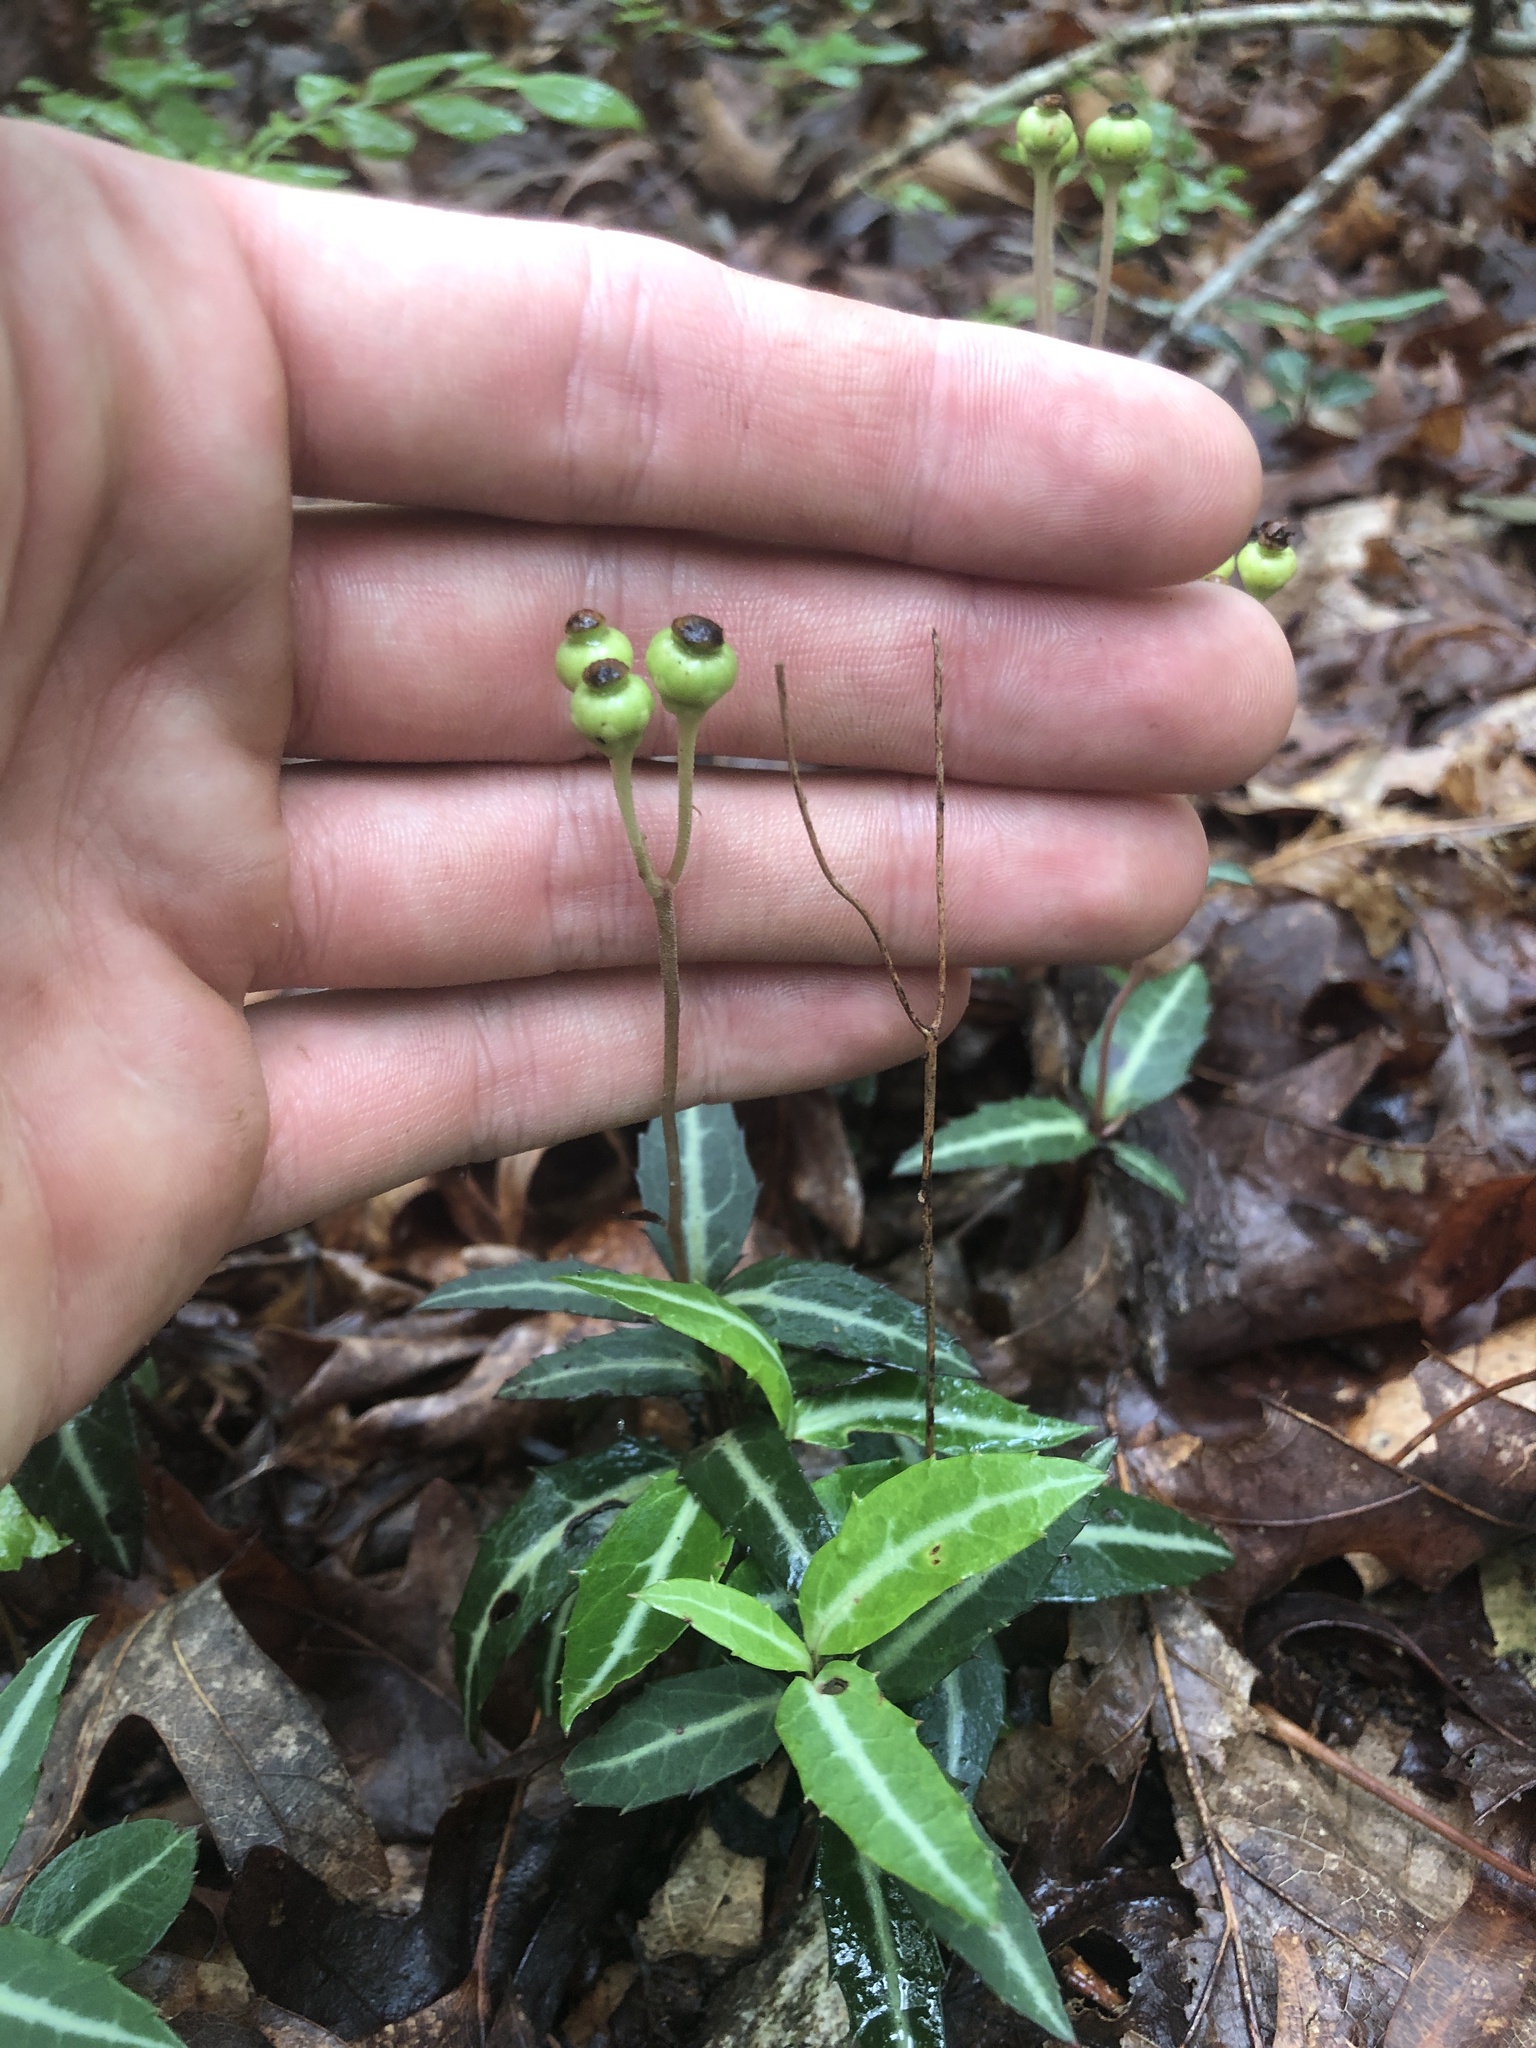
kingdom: Plantae
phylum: Tracheophyta
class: Magnoliopsida
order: Ericales
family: Ericaceae
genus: Chimaphila
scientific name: Chimaphila maculata
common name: Spotted pipsissewa
